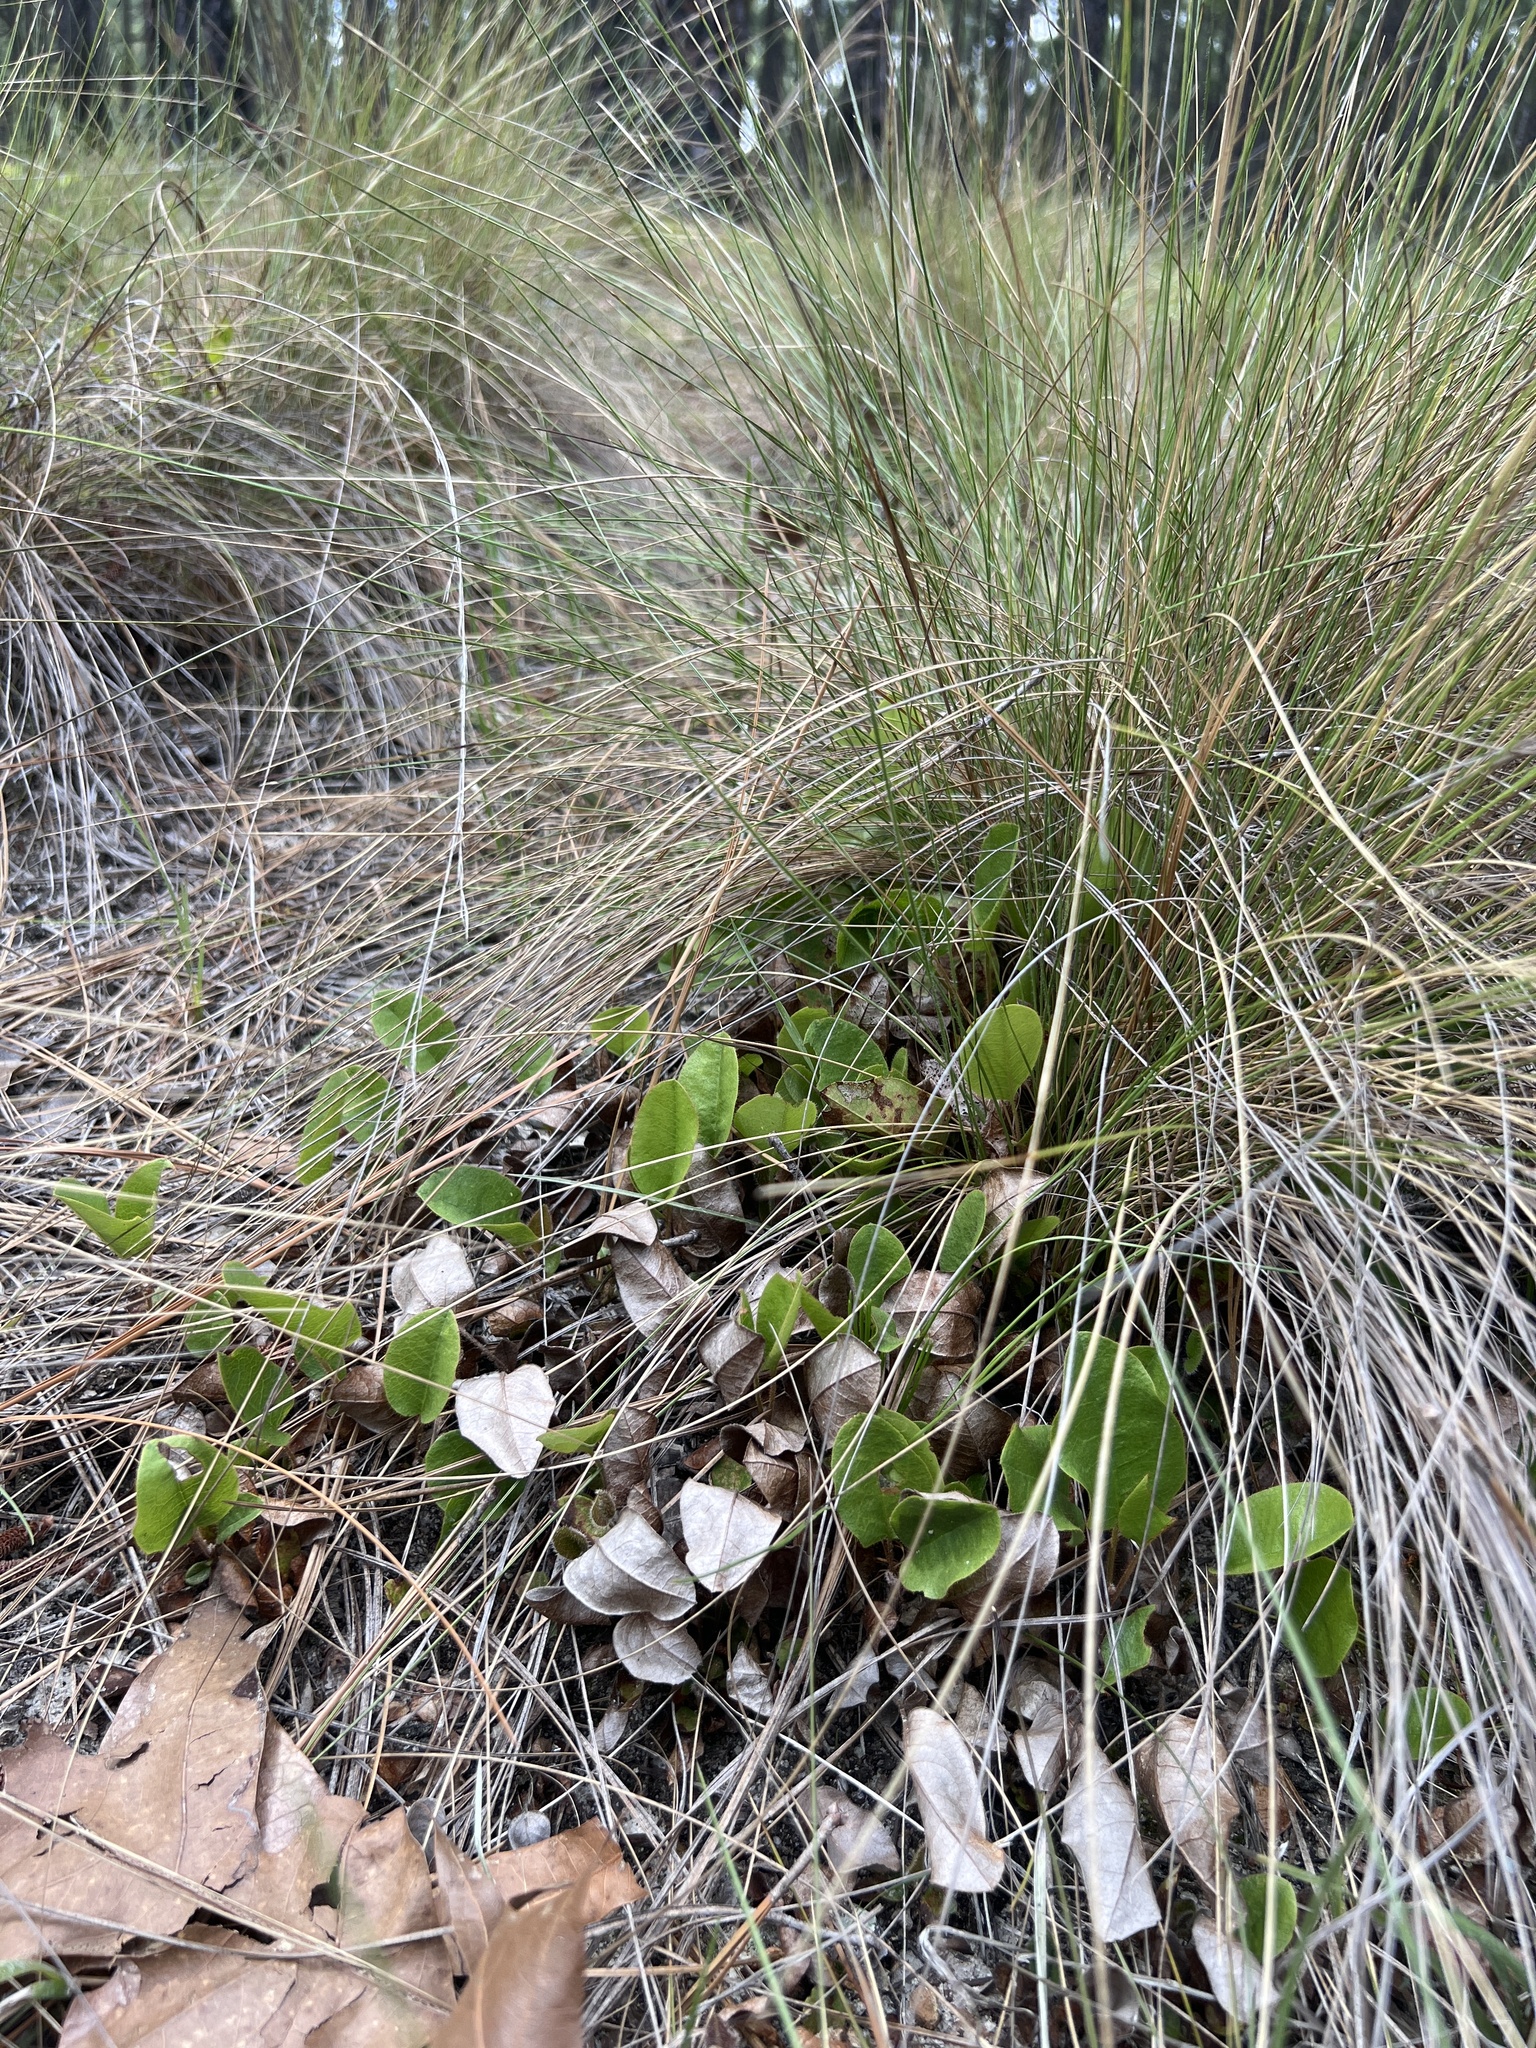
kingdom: Plantae
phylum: Tracheophyta
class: Magnoliopsida
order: Ericales
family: Ericaceae
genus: Epigaea
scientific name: Epigaea repens
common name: Gravelroot
